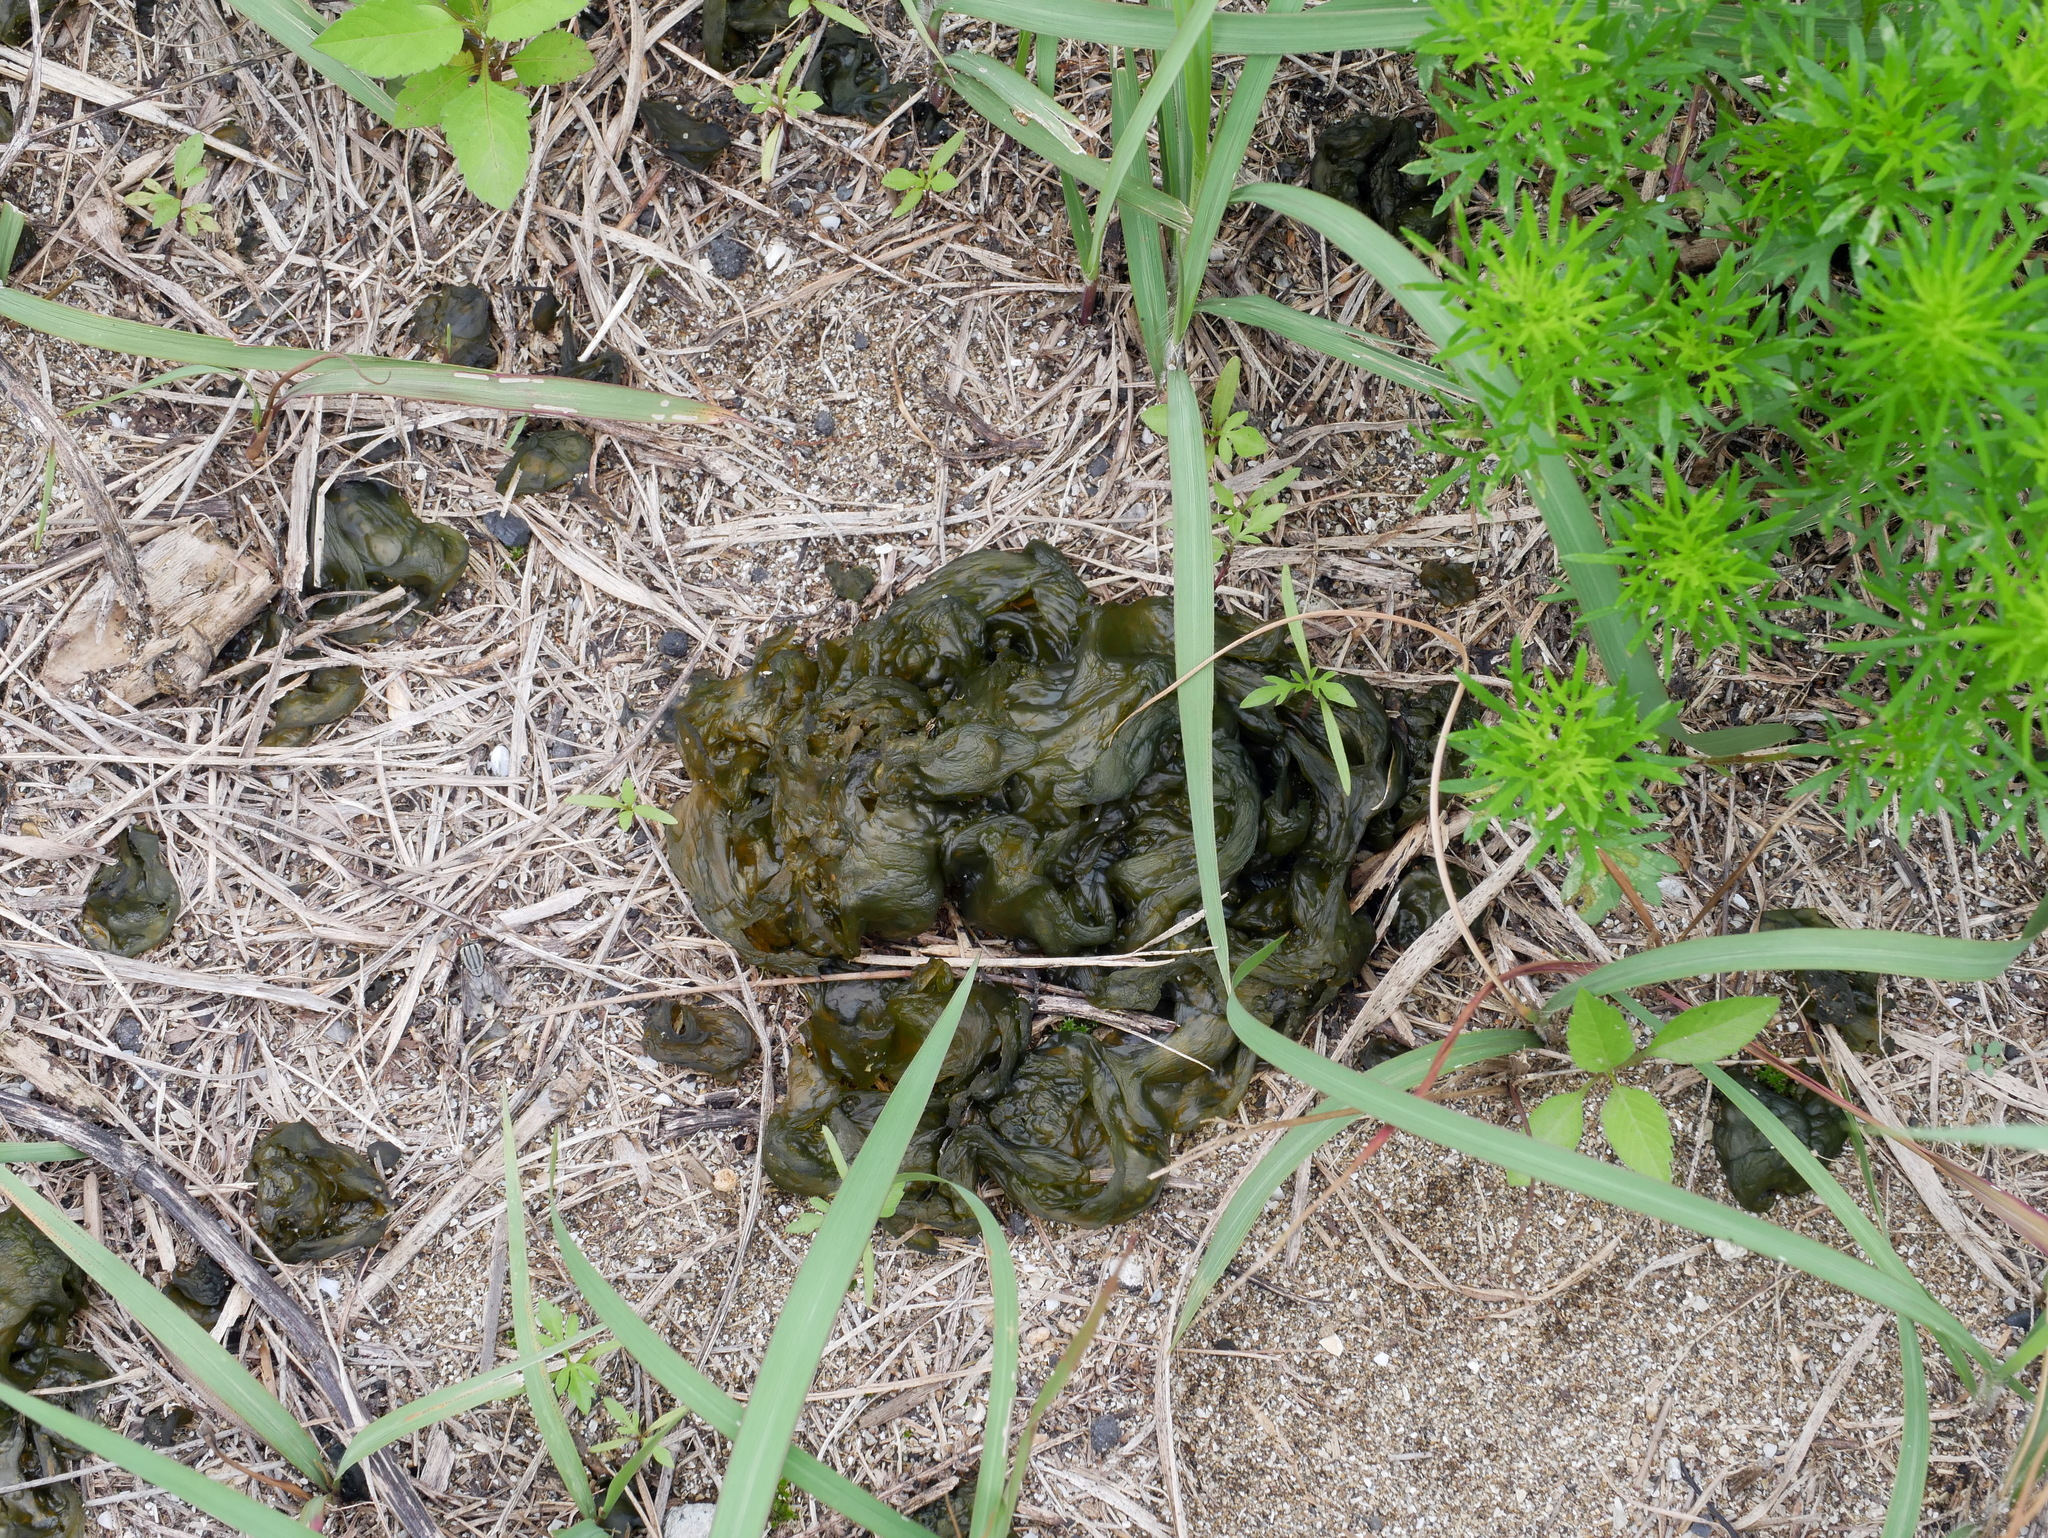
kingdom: Bacteria
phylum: Cyanobacteria
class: Cyanobacteriia
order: Cyanobacteriales
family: Nostocaceae
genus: Nostoc
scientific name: Nostoc commune
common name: Star jelly
